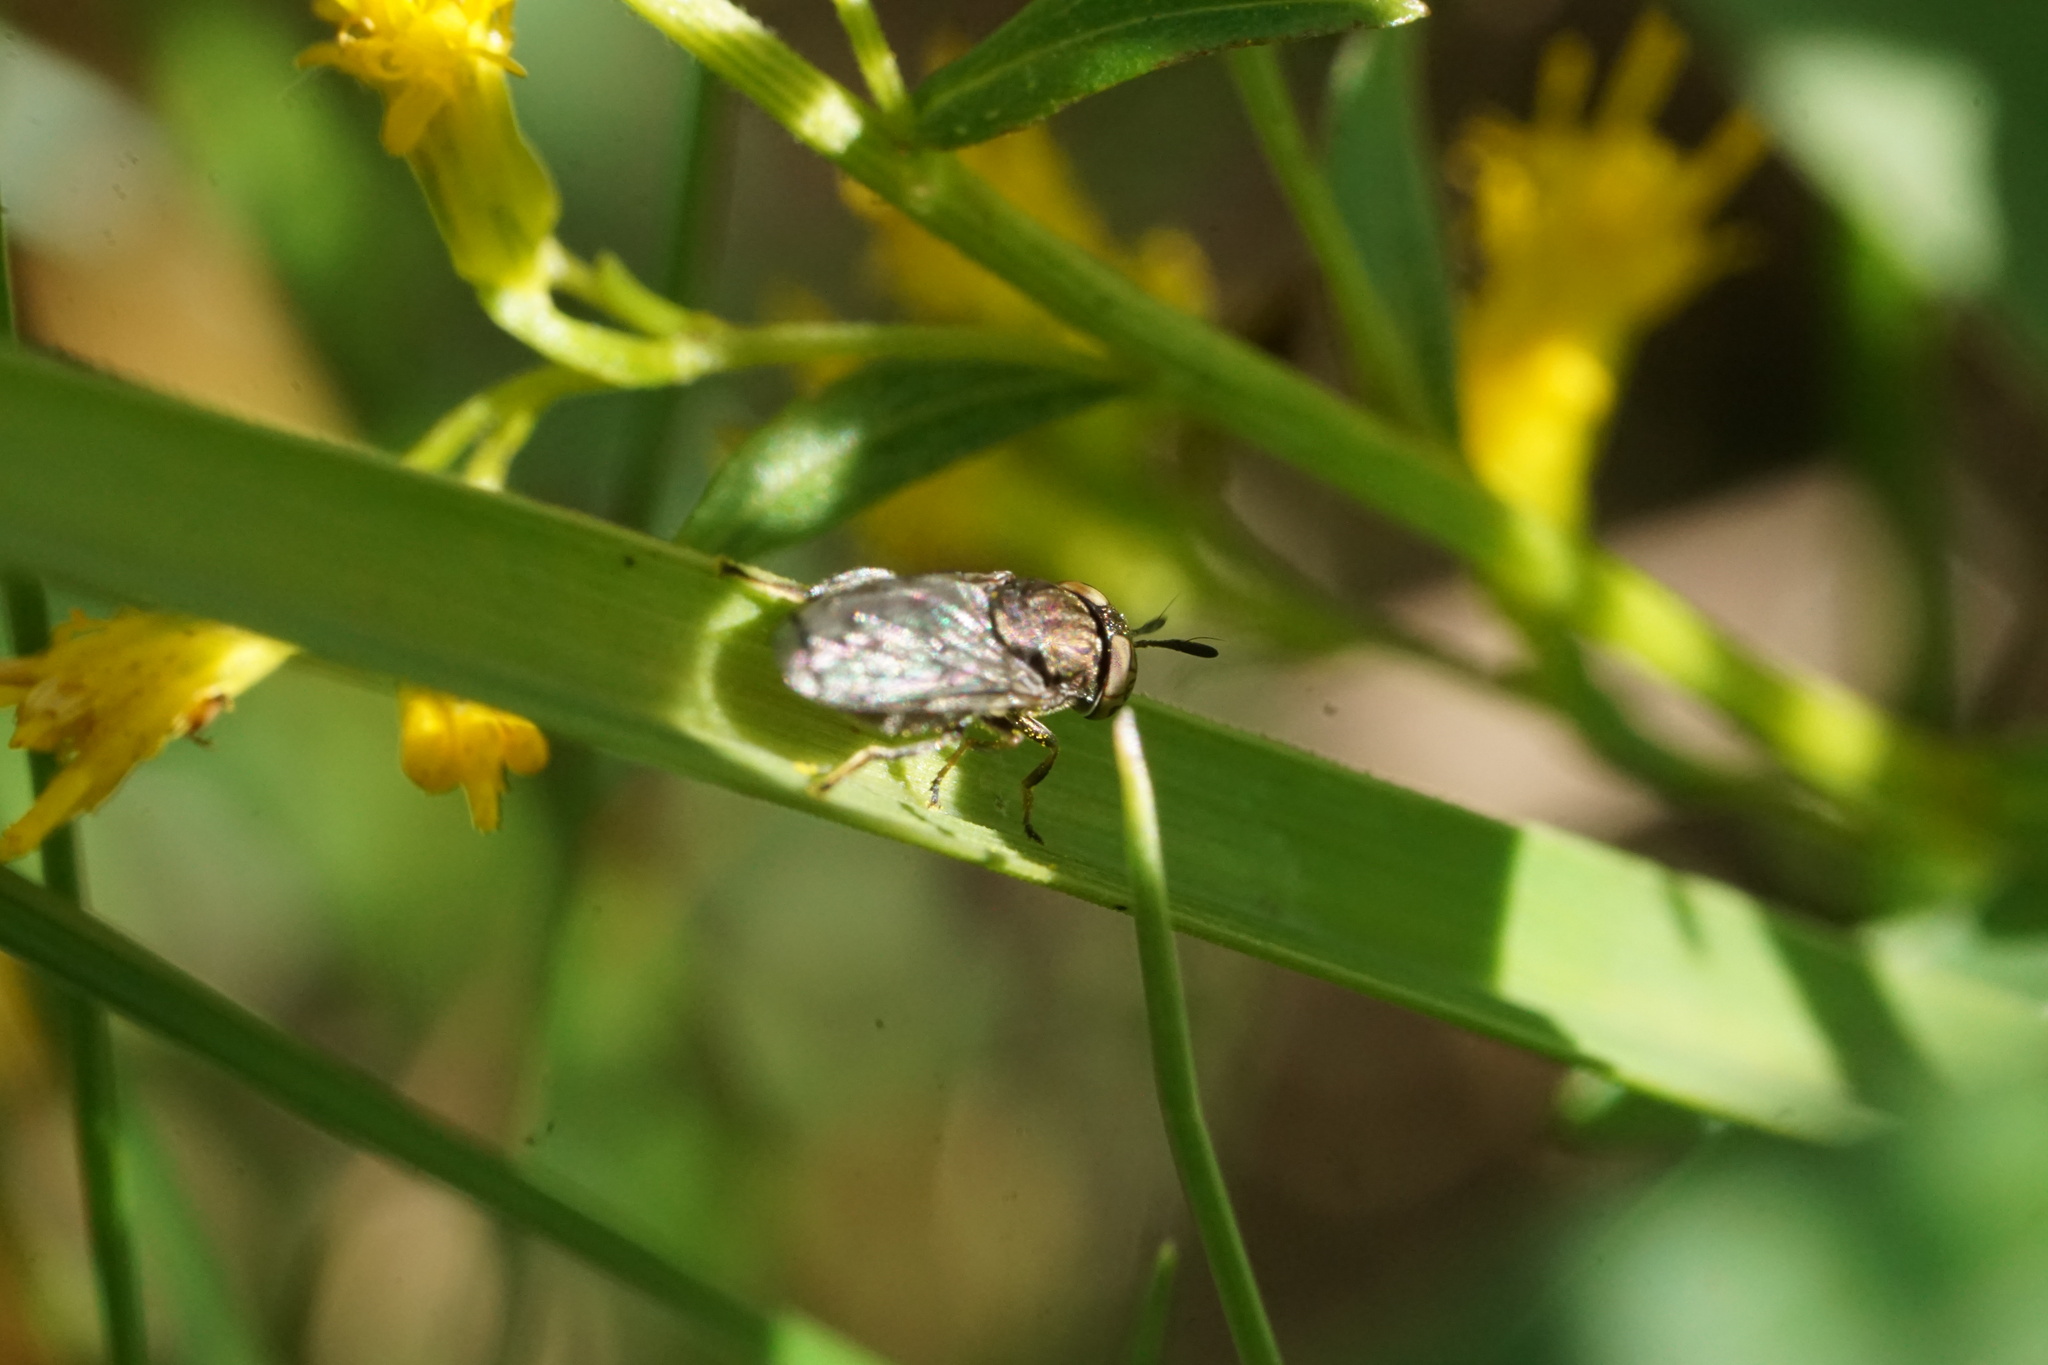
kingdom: Animalia
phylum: Arthropoda
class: Insecta
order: Diptera
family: Syrphidae
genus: Orthonevra
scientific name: Orthonevra nitida
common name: Wavy mucksucker
